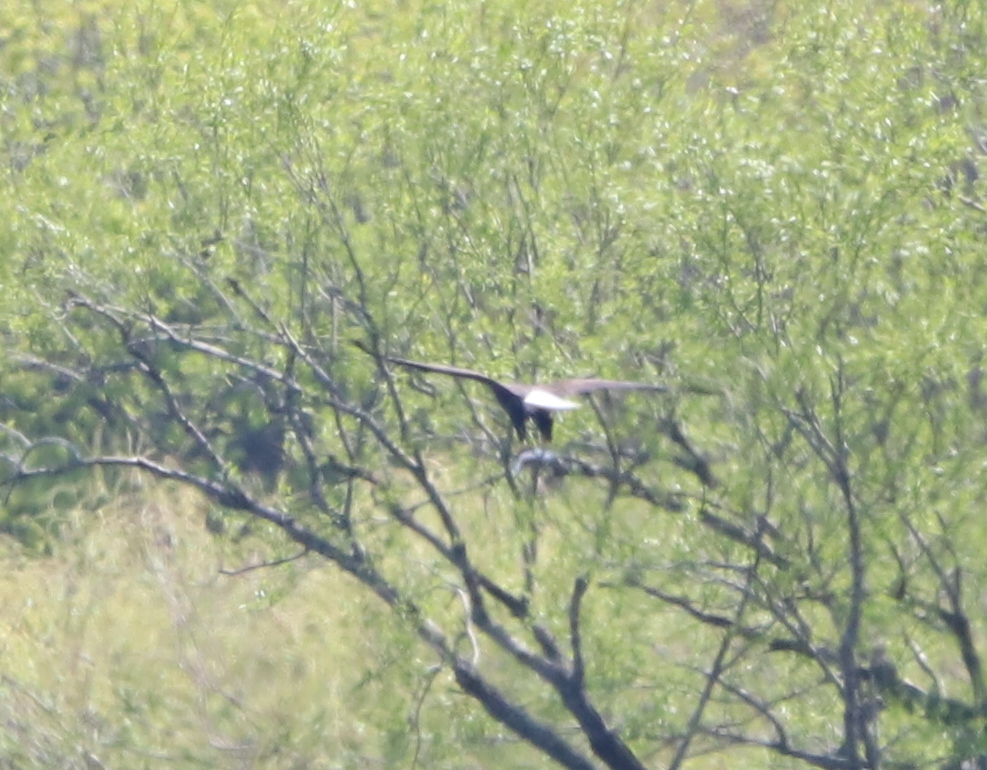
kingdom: Animalia
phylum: Chordata
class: Aves
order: Accipitriformes
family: Accipitridae
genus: Haliaeetus
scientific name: Haliaeetus leucocephalus
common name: Bald eagle
